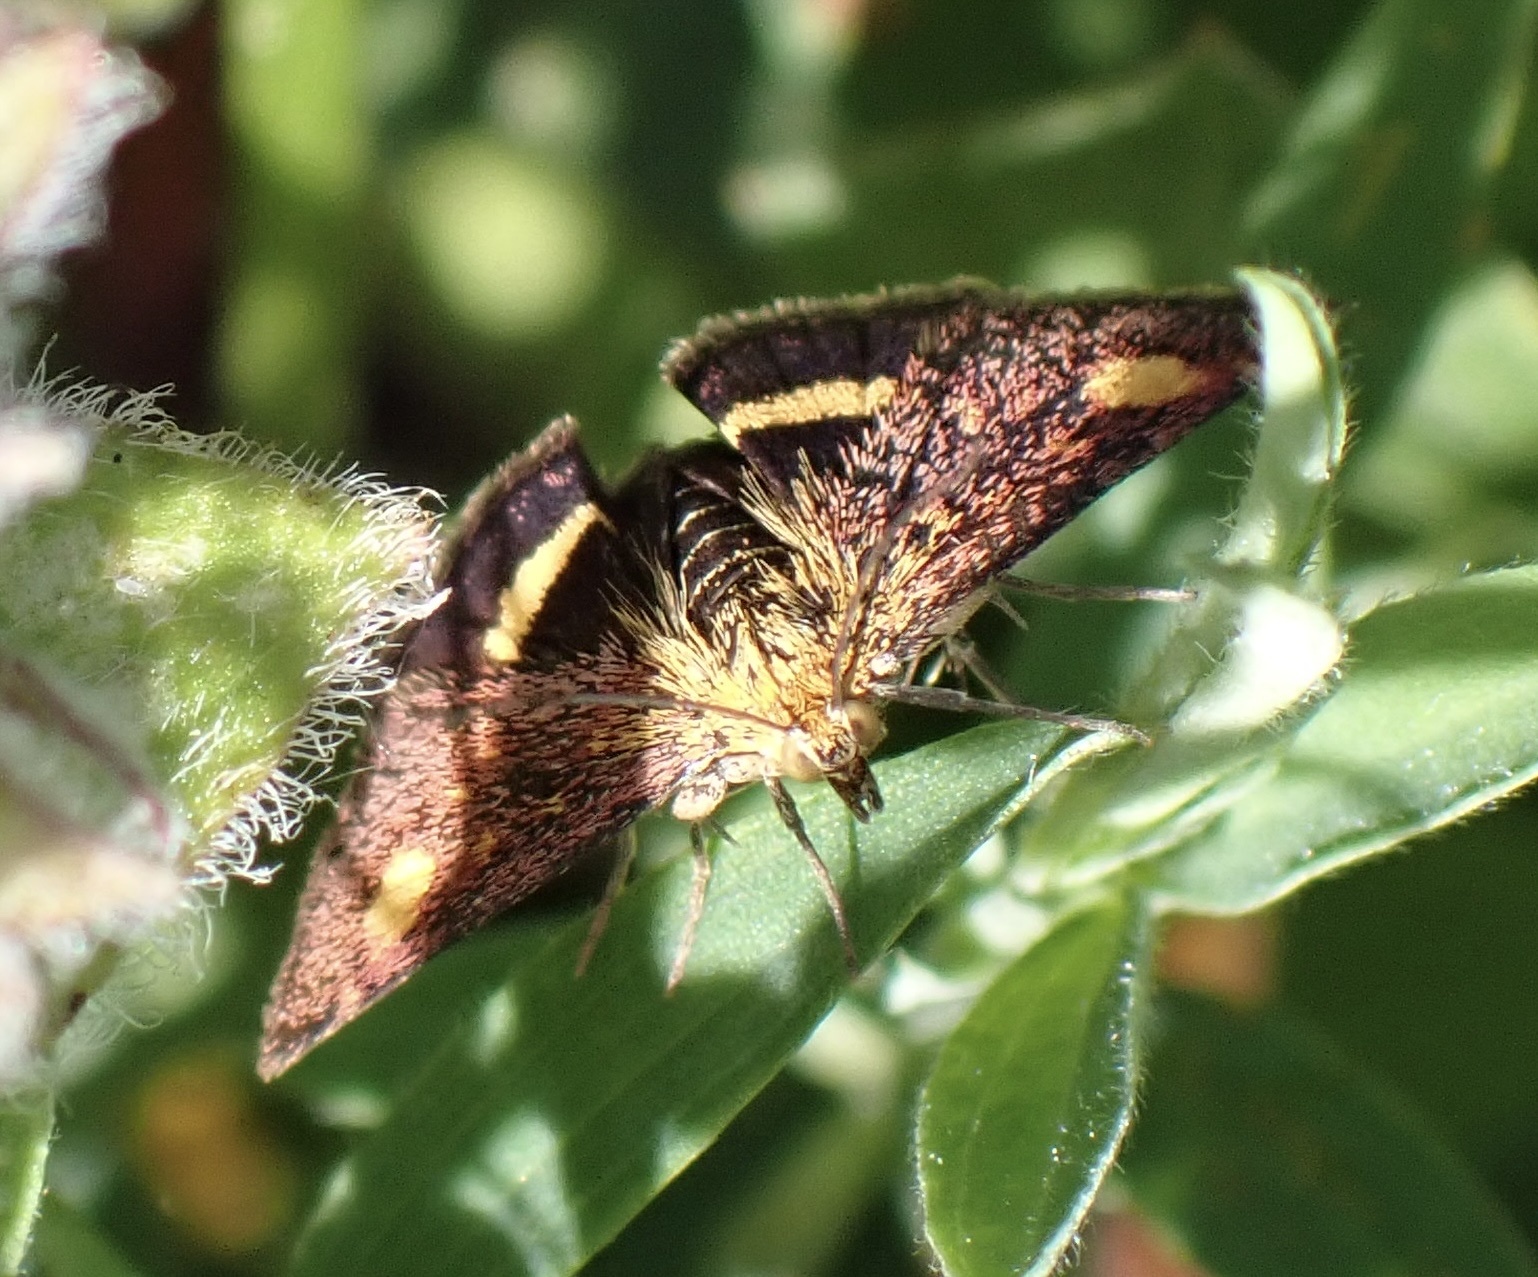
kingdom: Animalia
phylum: Arthropoda
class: Insecta
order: Lepidoptera
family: Crambidae
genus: Pyrausta
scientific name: Pyrausta aurata
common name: Small purple & gold
